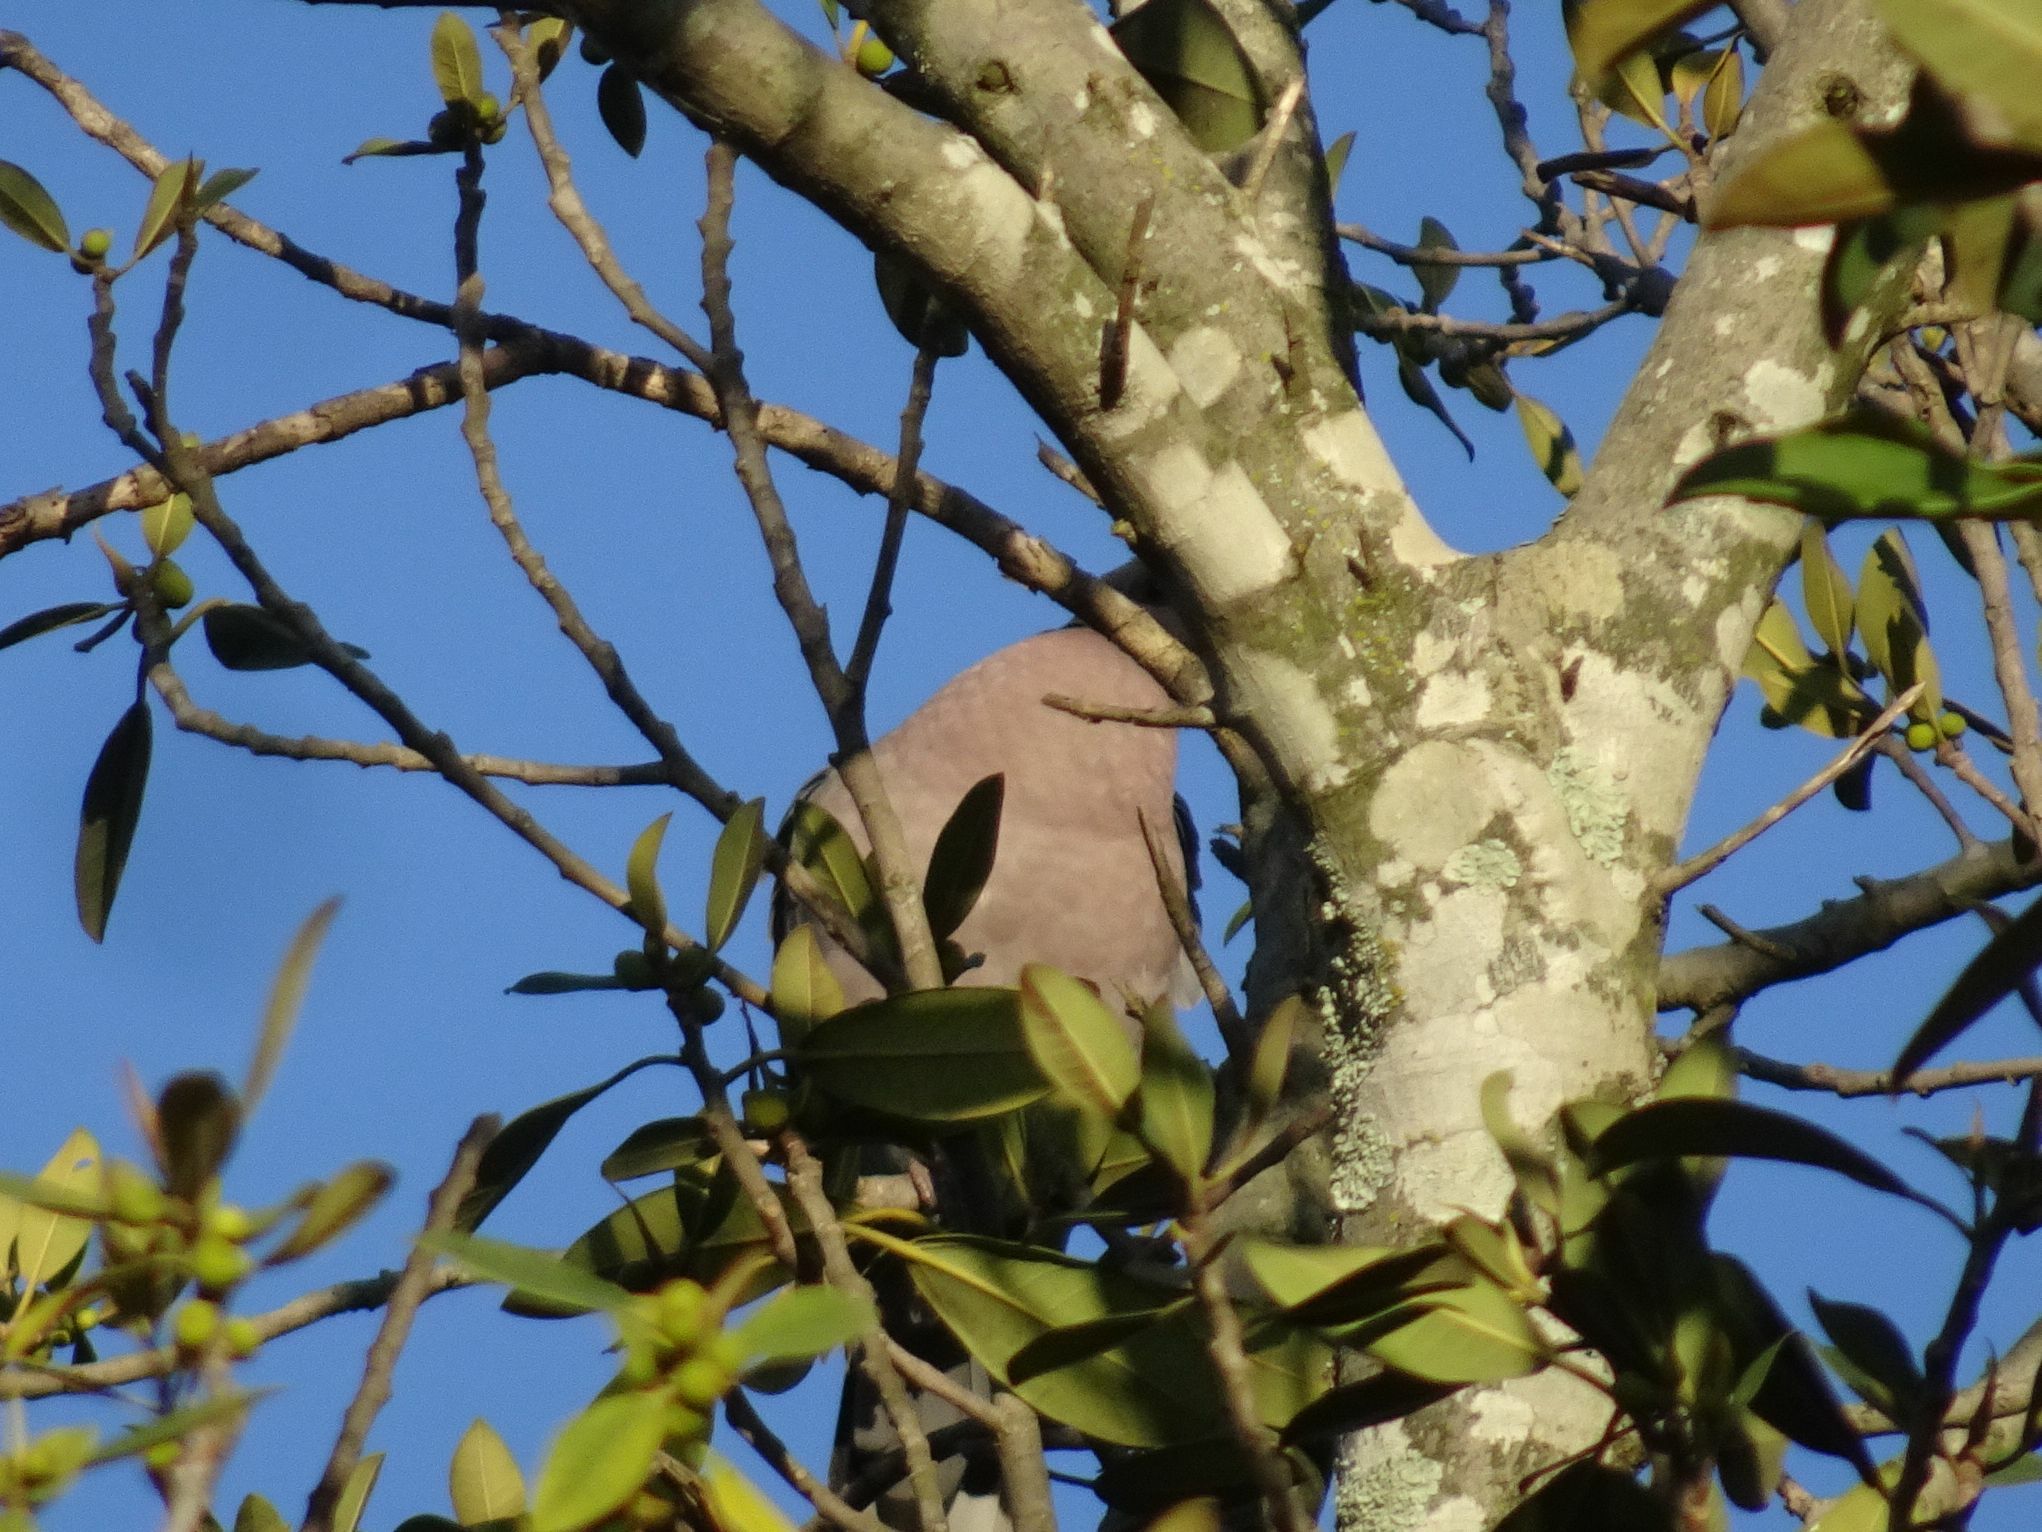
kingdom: Animalia
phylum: Chordata
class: Aves
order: Columbiformes
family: Columbidae
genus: Streptopelia
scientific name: Streptopelia semitorquata
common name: Red-eyed dove
